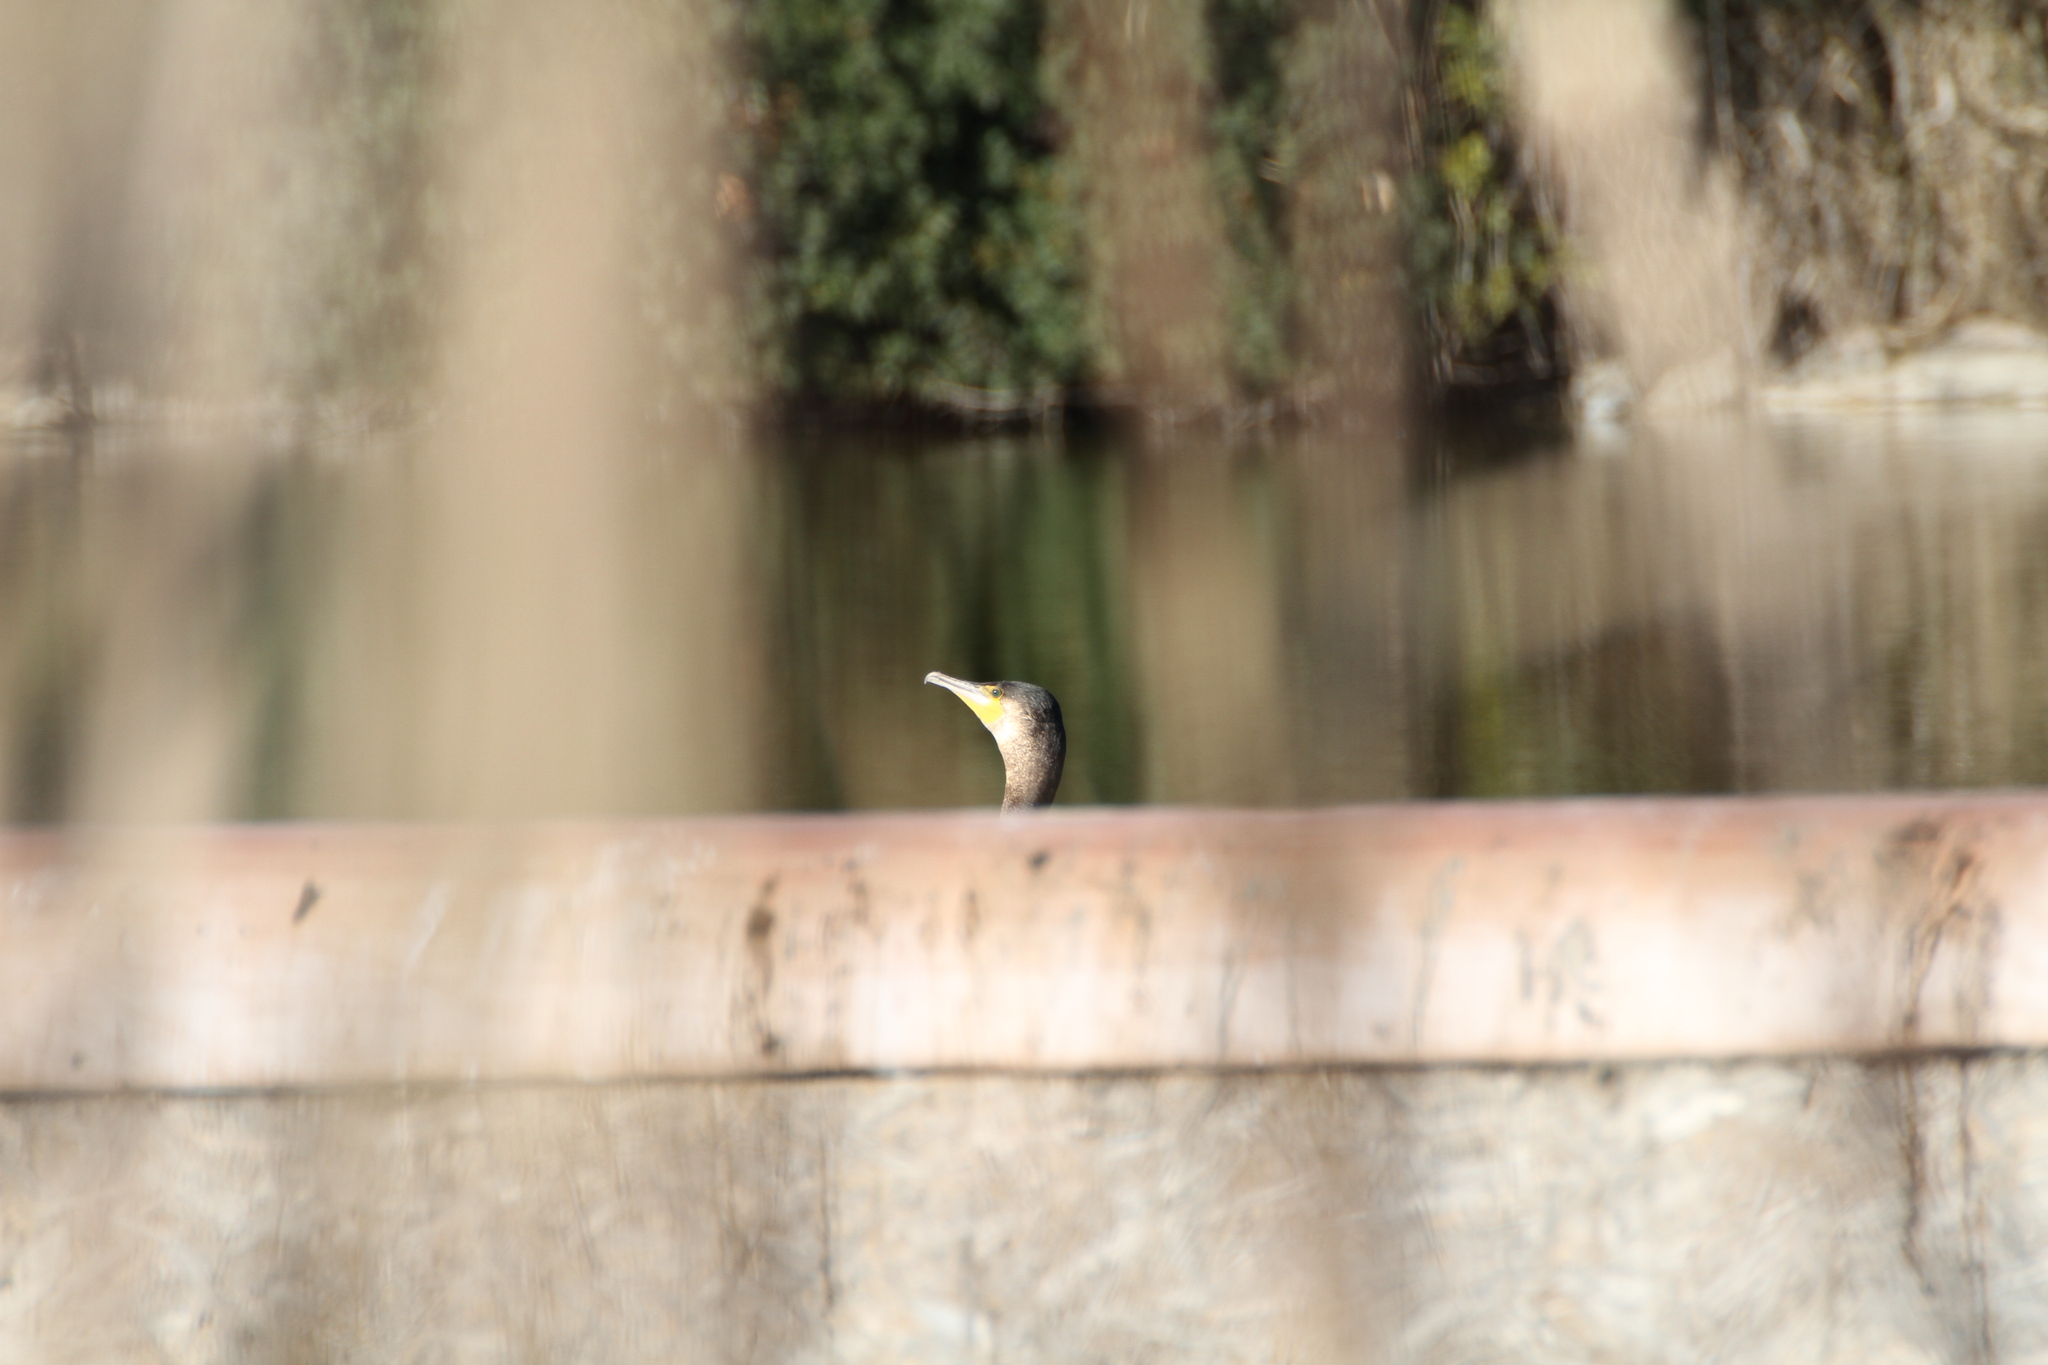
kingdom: Animalia
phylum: Chordata
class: Aves
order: Suliformes
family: Phalacrocoracidae
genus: Phalacrocorax
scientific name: Phalacrocorax carbo
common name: Great cormorant
